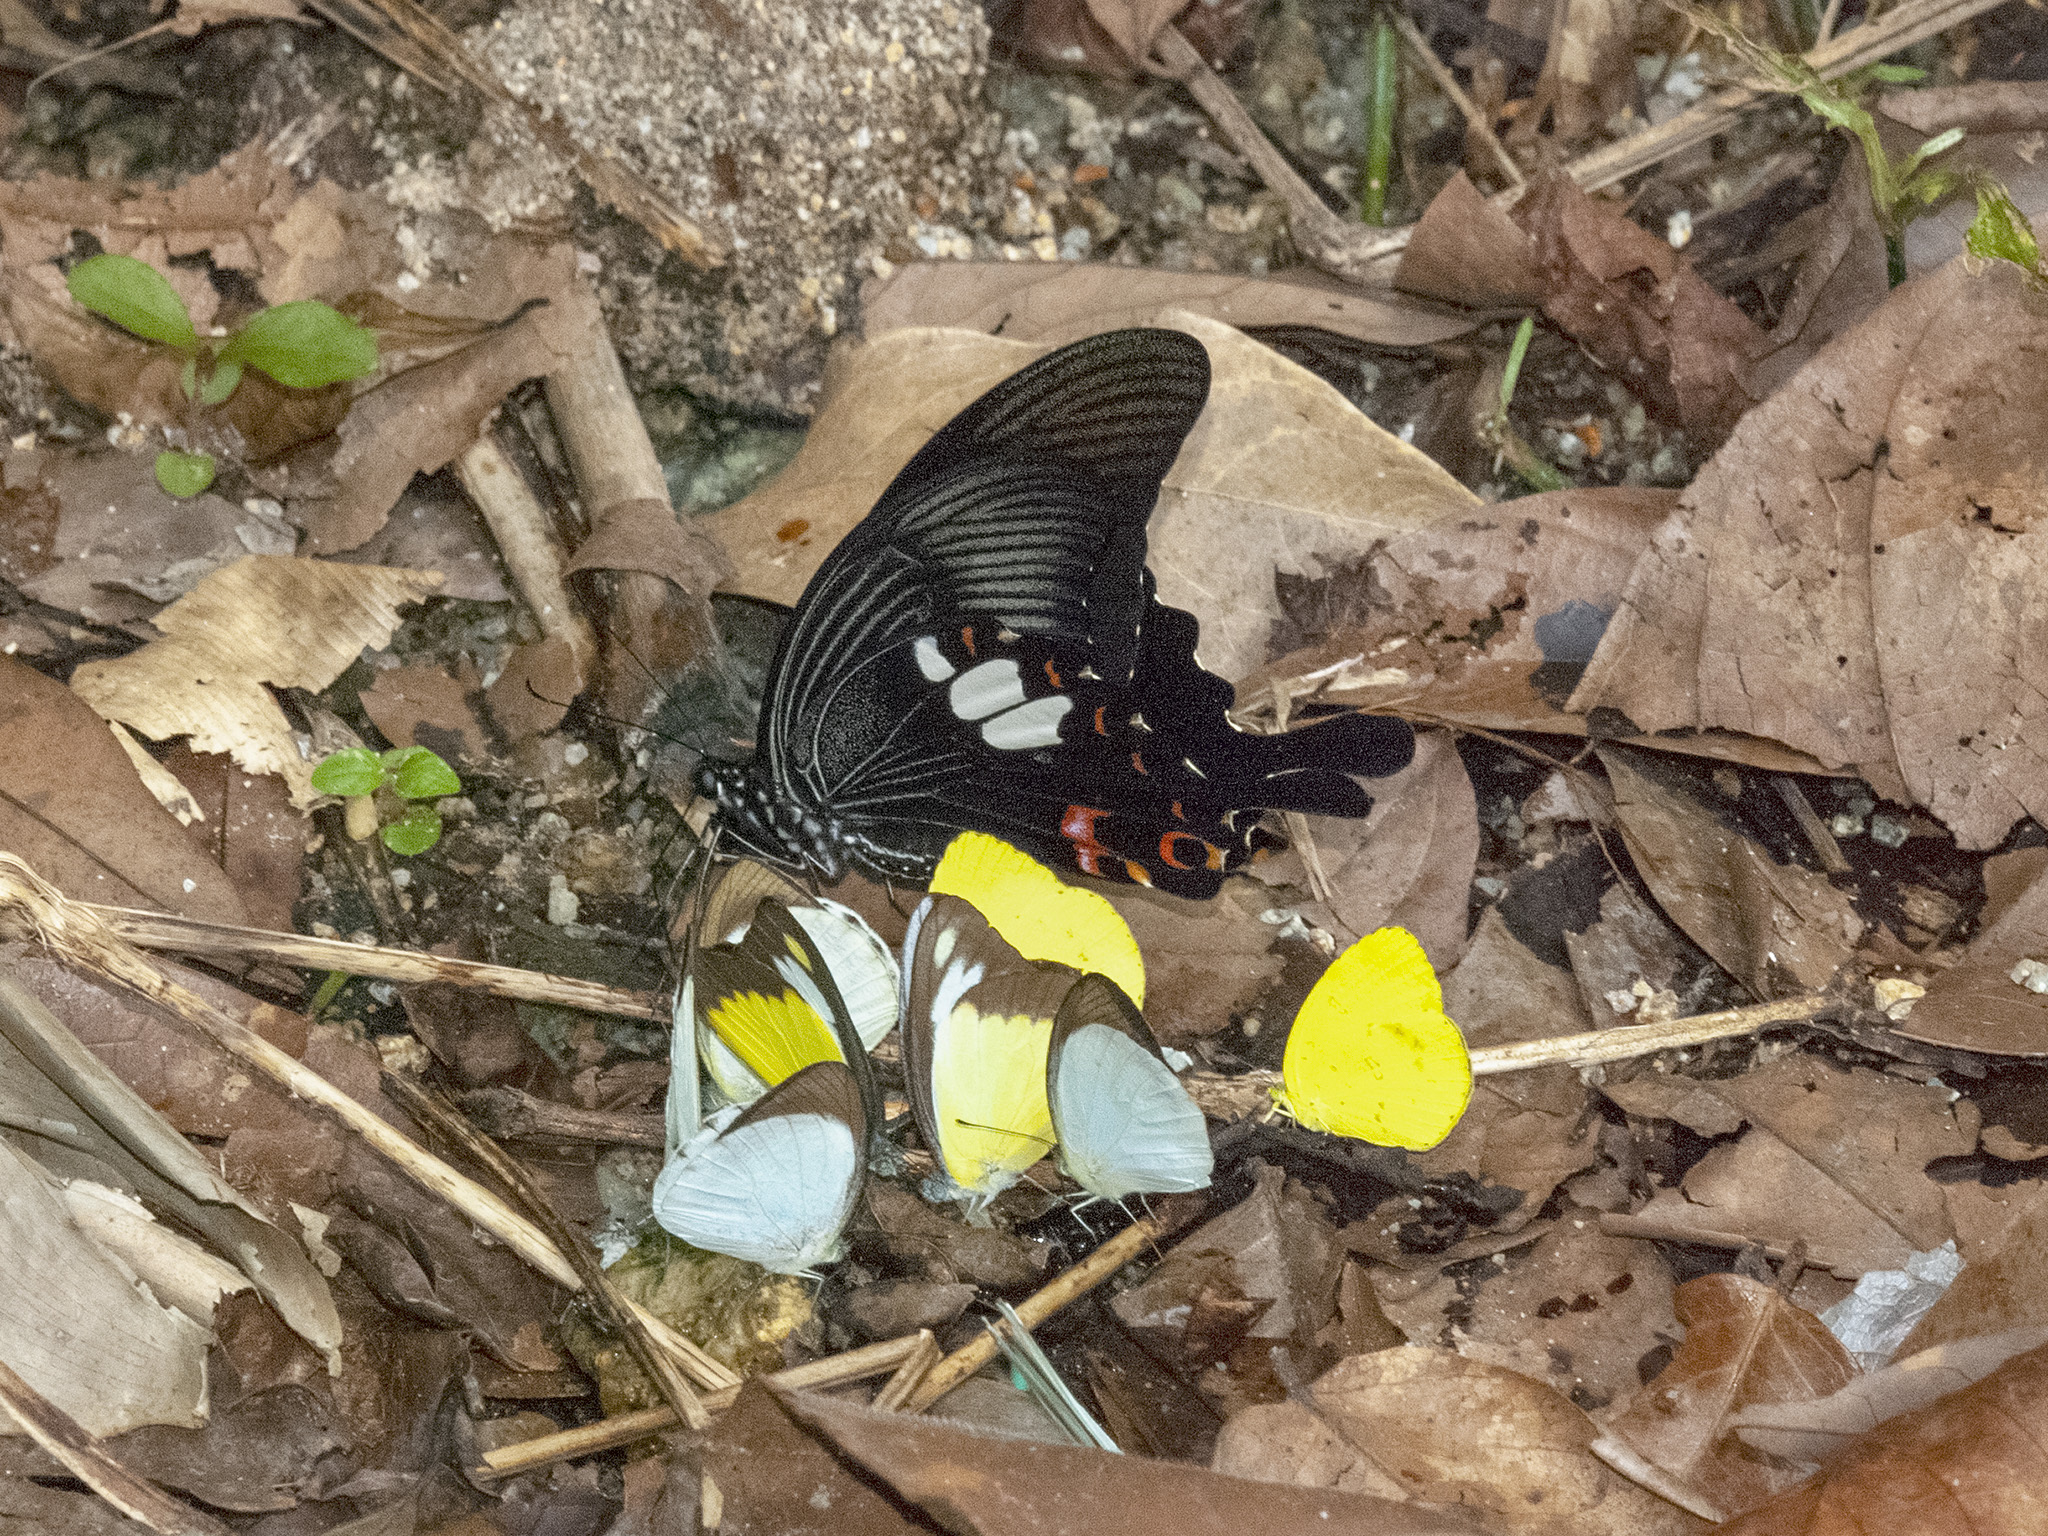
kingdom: Animalia
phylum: Arthropoda
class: Insecta
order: Lepidoptera
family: Papilionidae
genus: Papilio
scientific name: Papilio helenus
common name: Red helen
